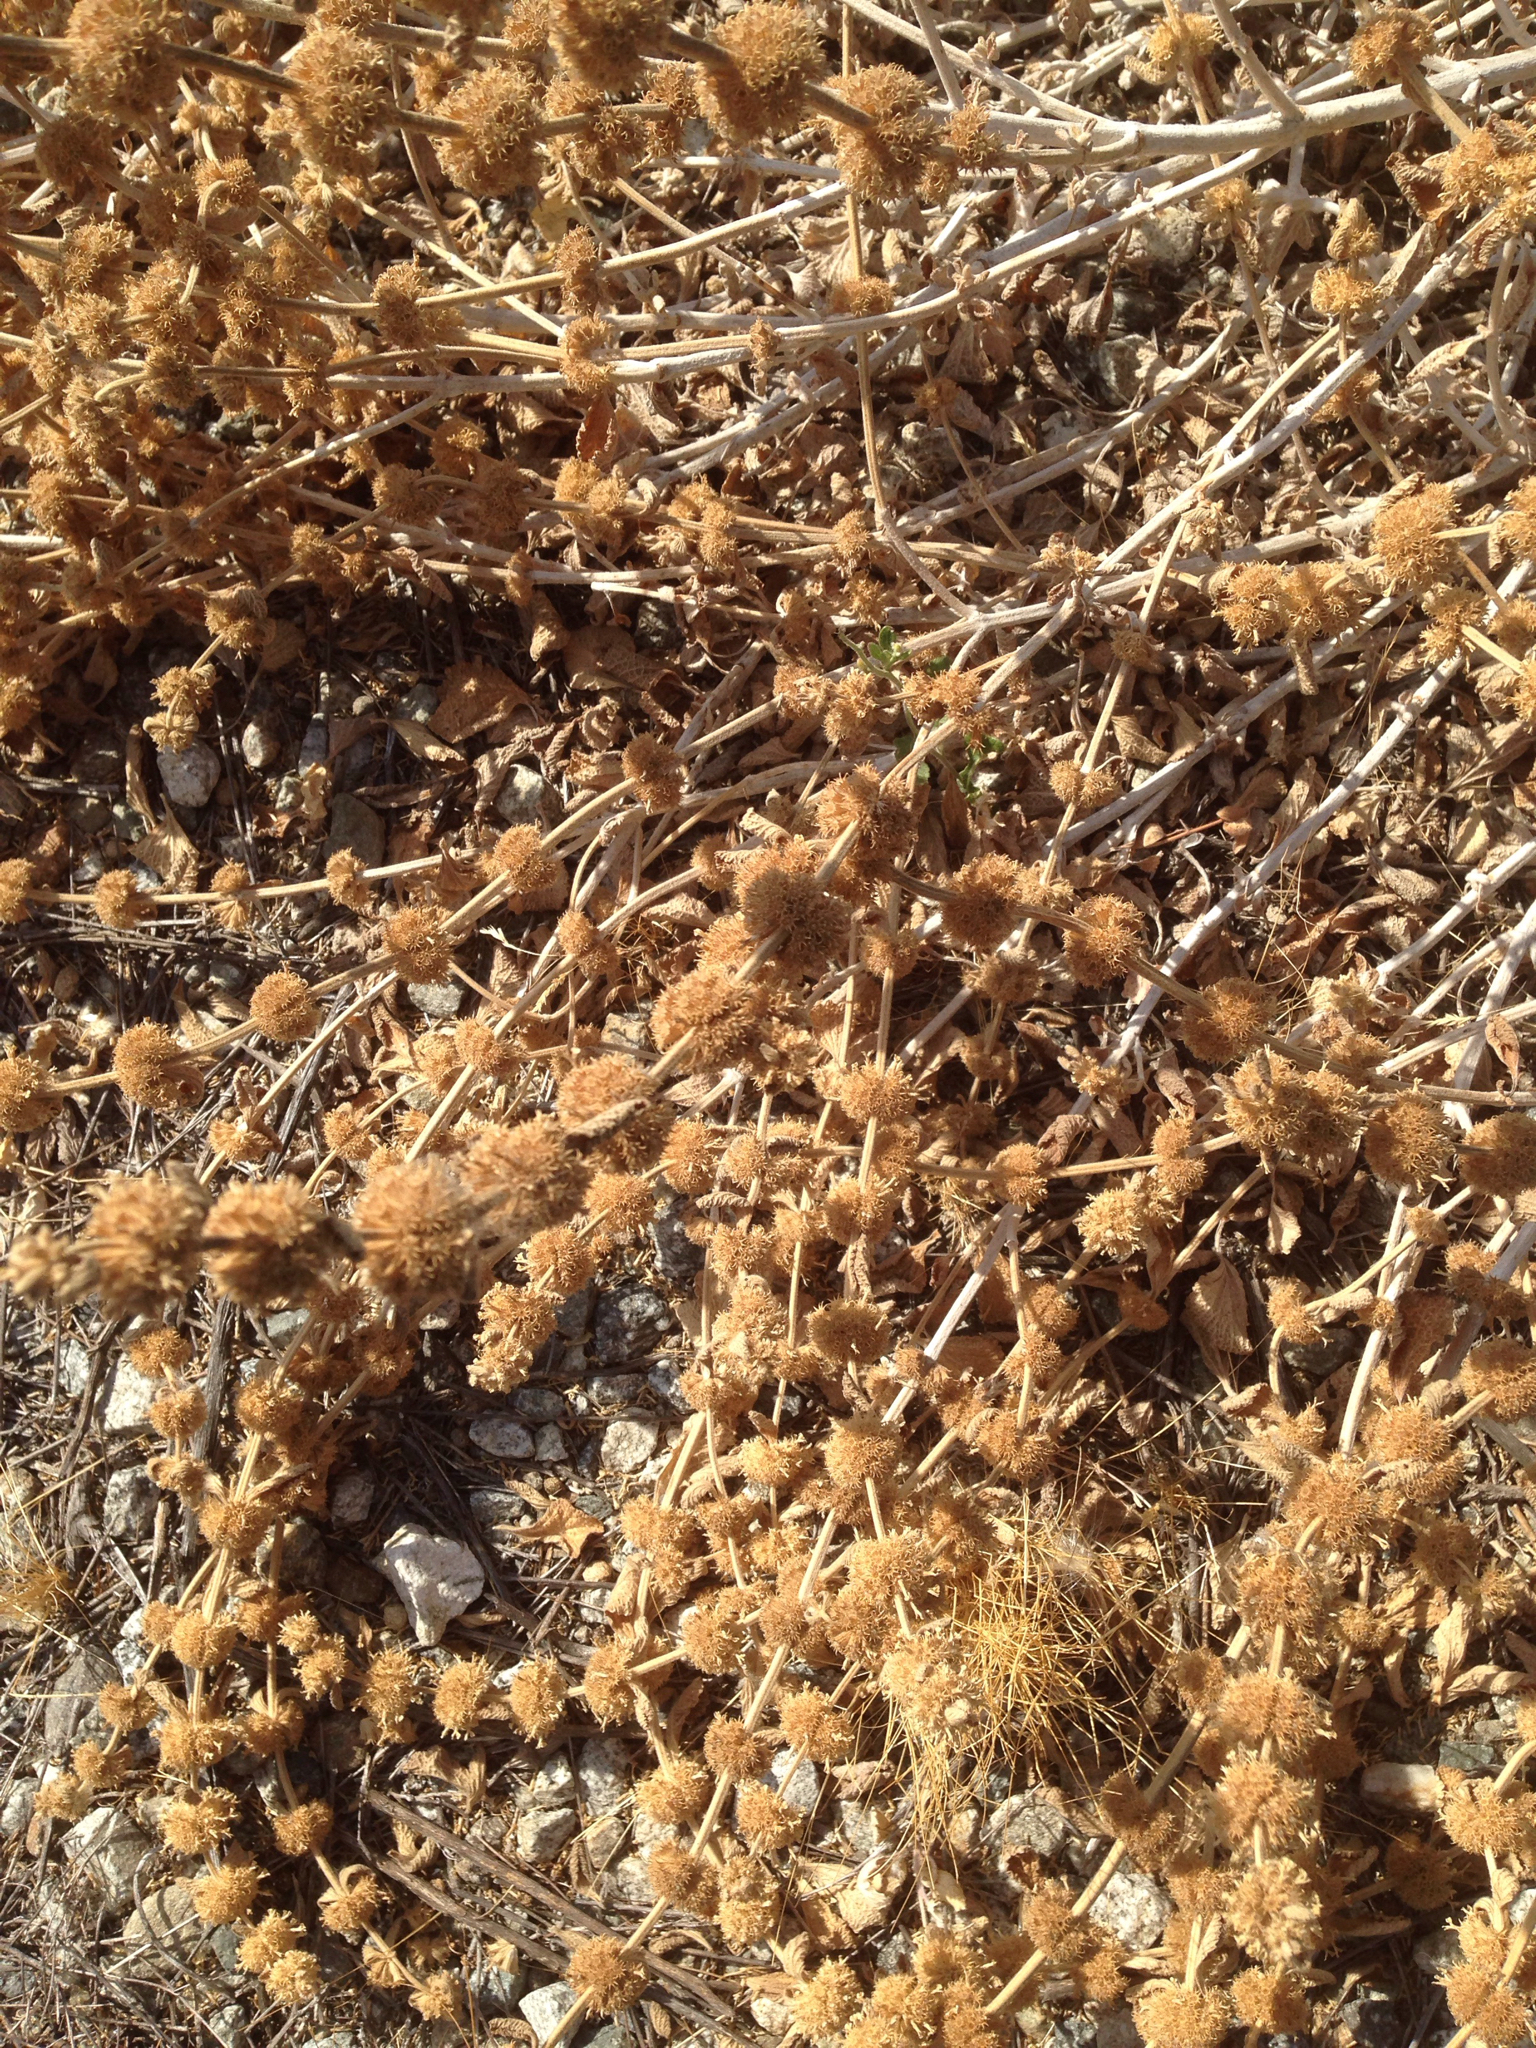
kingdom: Plantae
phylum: Tracheophyta
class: Magnoliopsida
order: Lamiales
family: Lamiaceae
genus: Marrubium
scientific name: Marrubium vulgare
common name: Horehound
